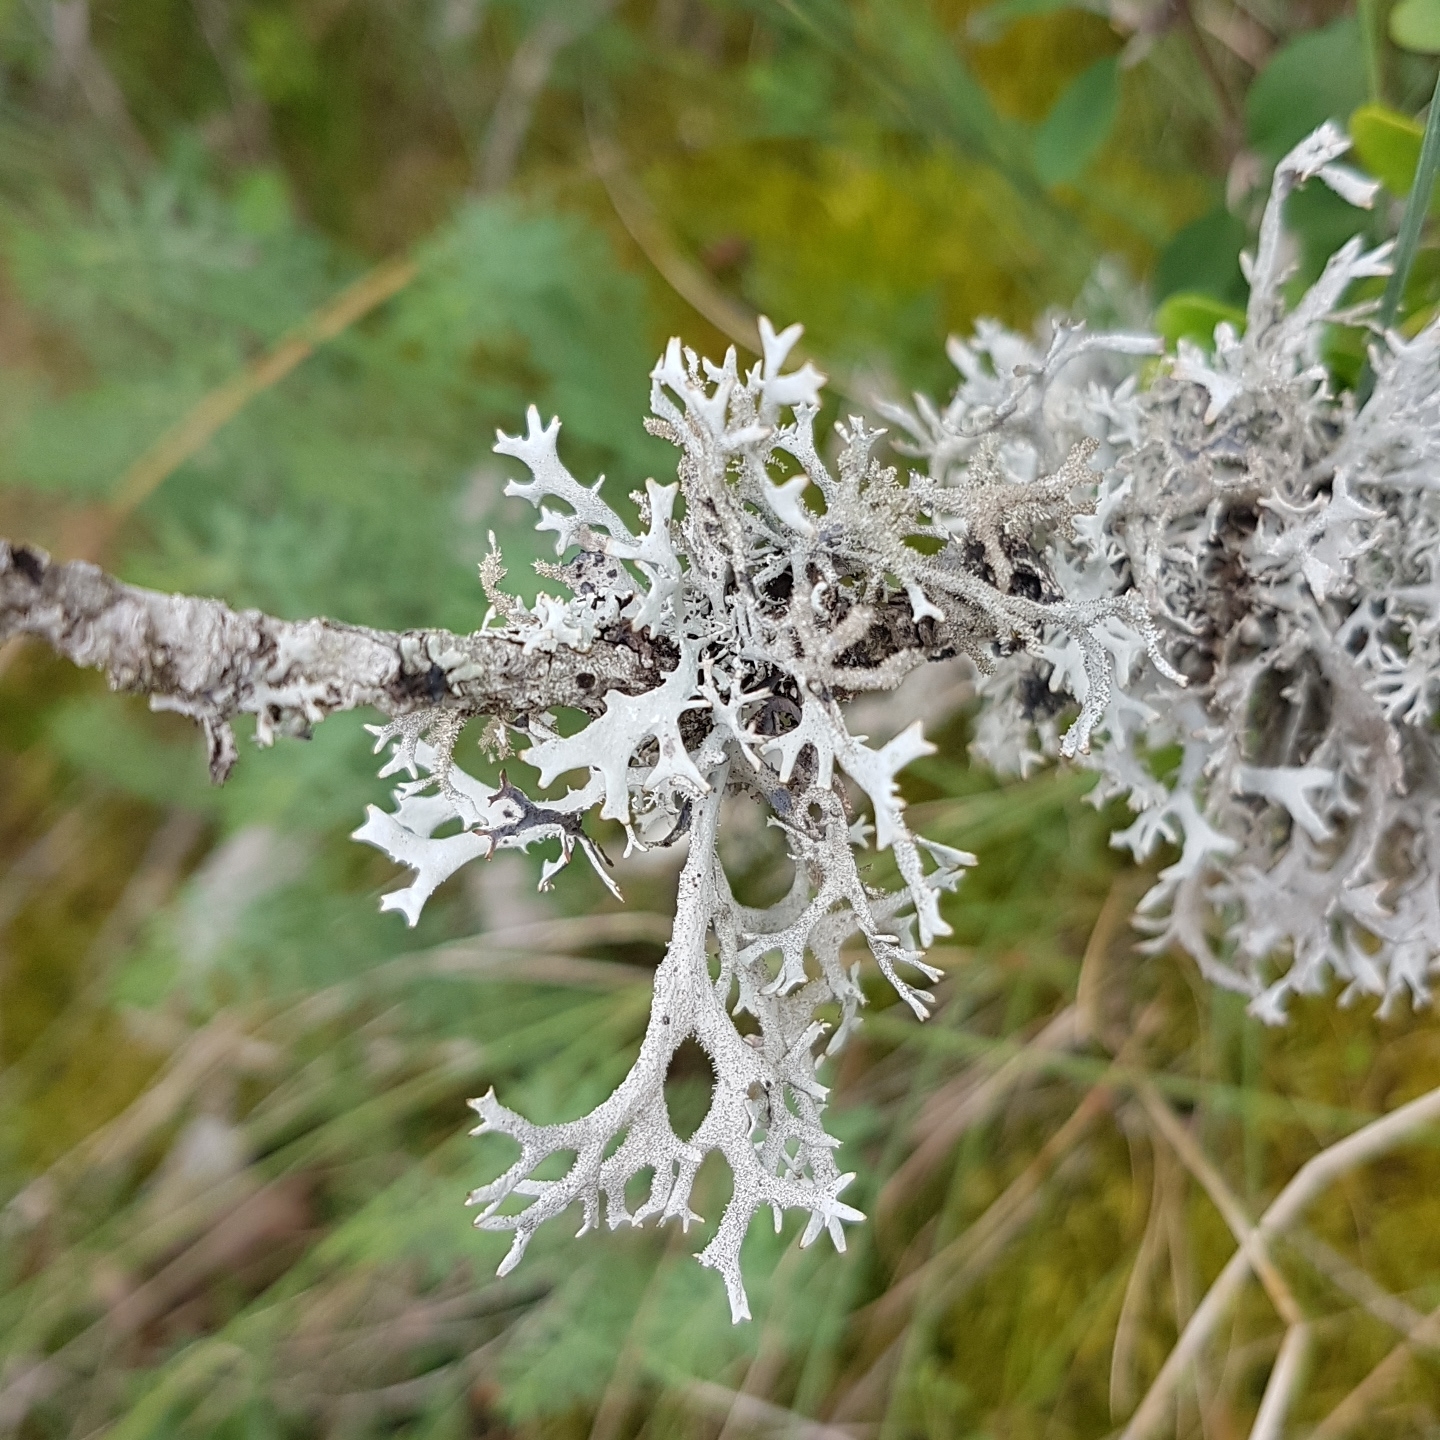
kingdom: Fungi
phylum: Ascomycota
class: Lecanoromycetes
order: Lecanorales
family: Parmeliaceae
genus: Pseudevernia
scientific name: Pseudevernia furfuracea
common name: Tree moss
